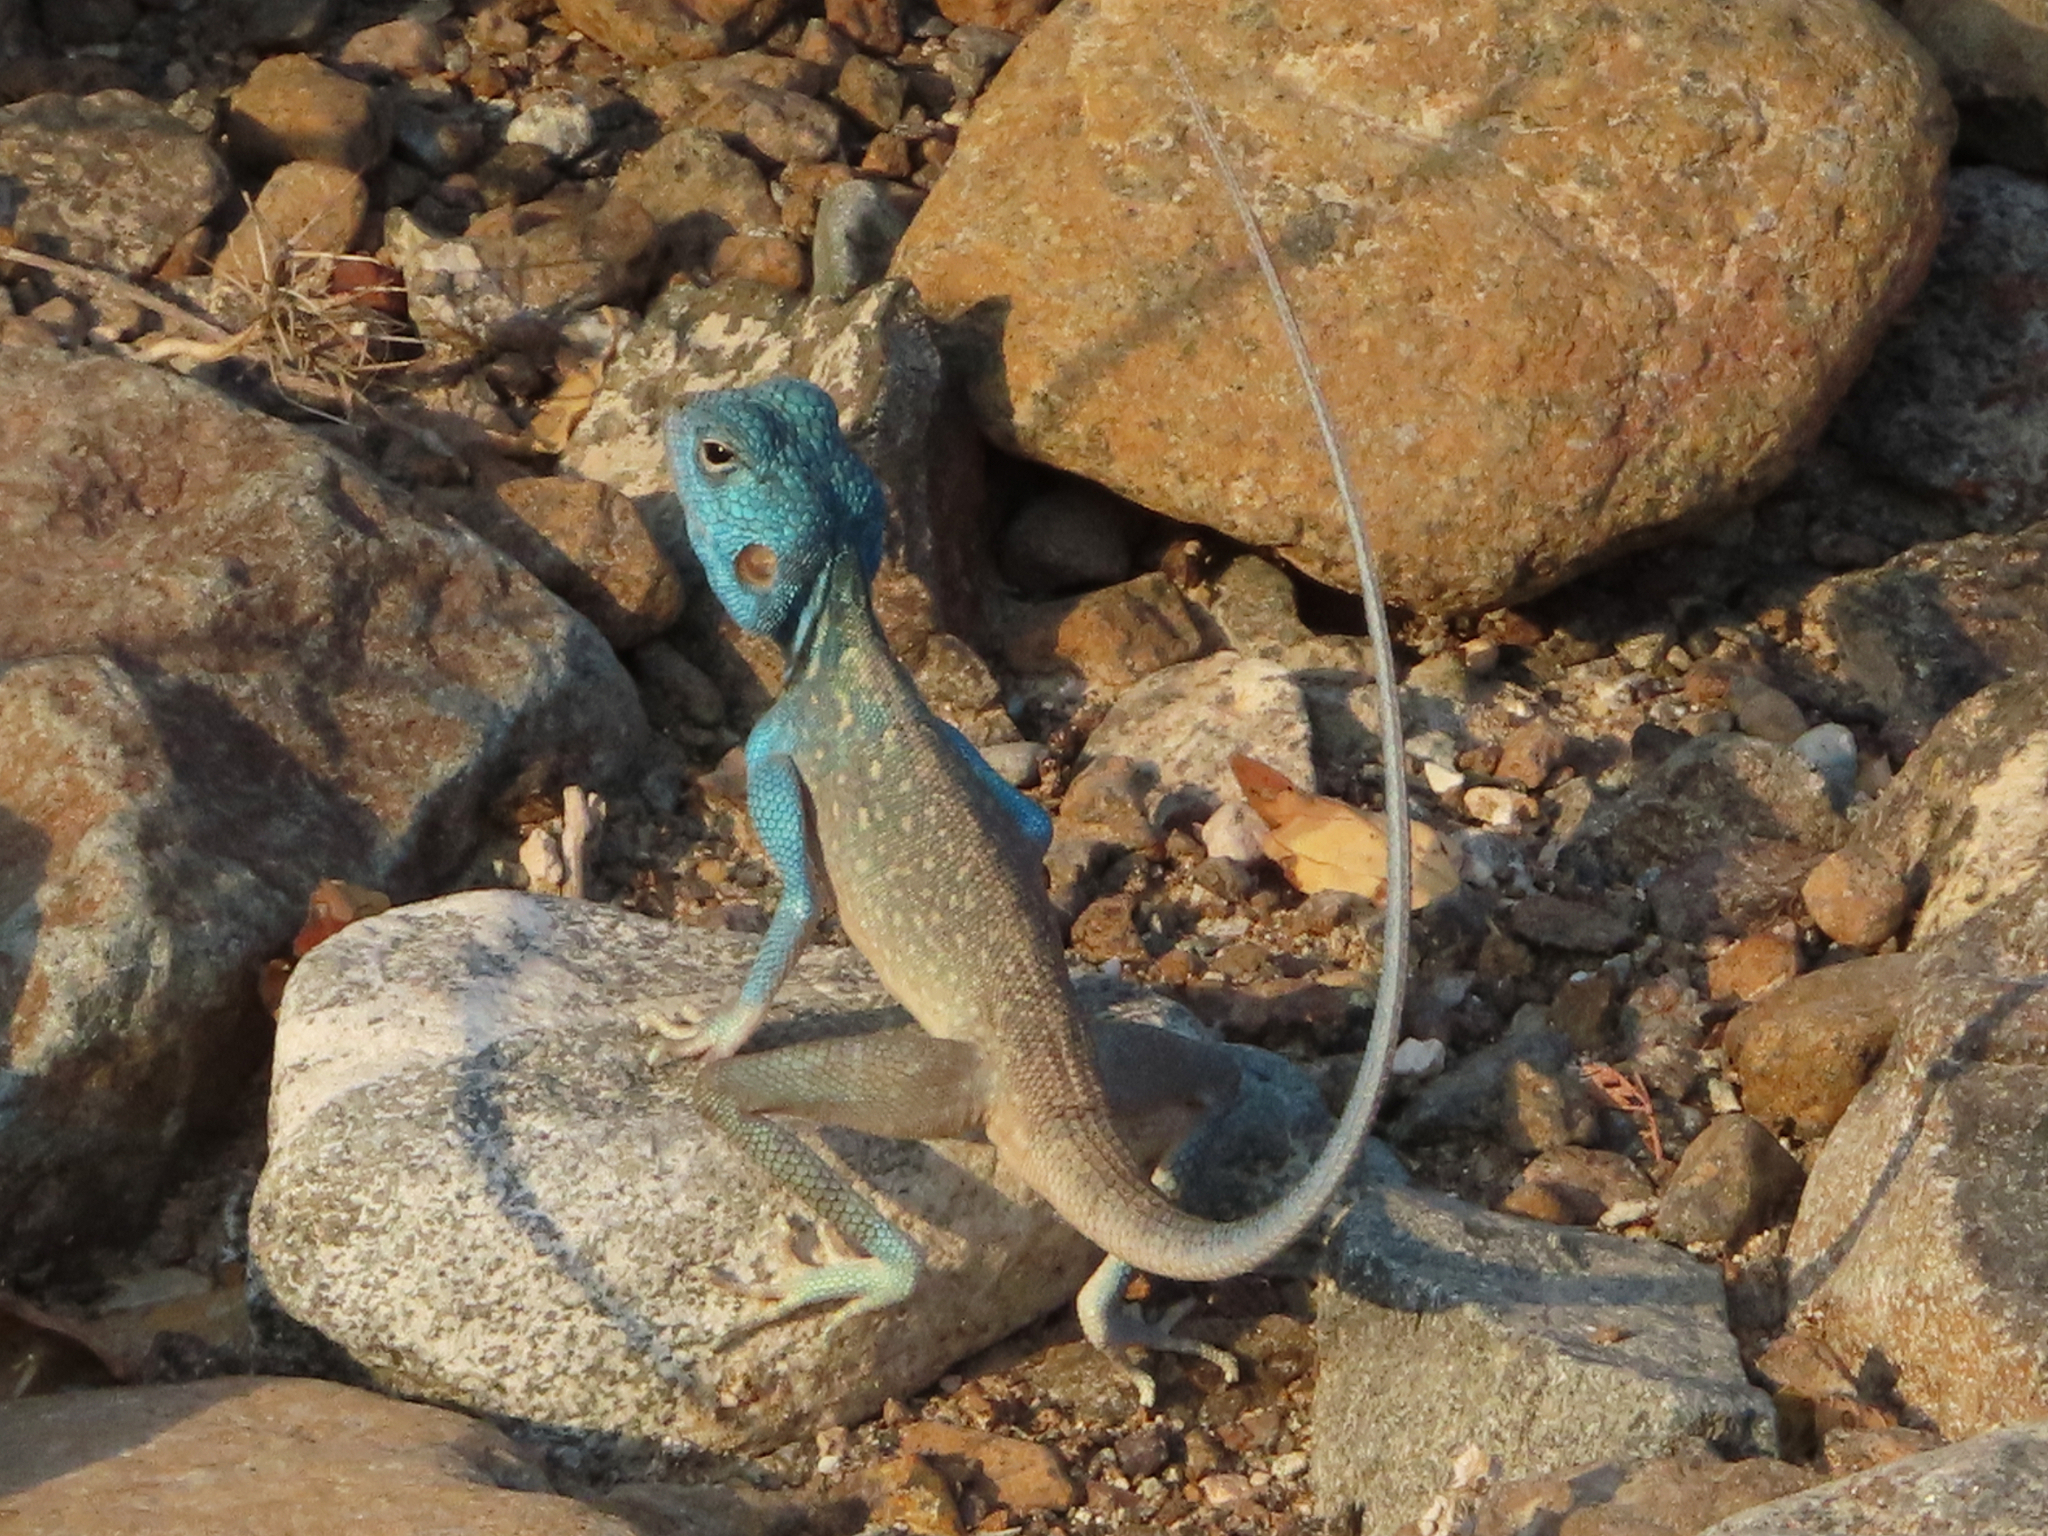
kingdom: Animalia
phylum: Chordata
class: Squamata
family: Agamidae
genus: Pseudotrapelus
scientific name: Pseudotrapelus jensvindumi
